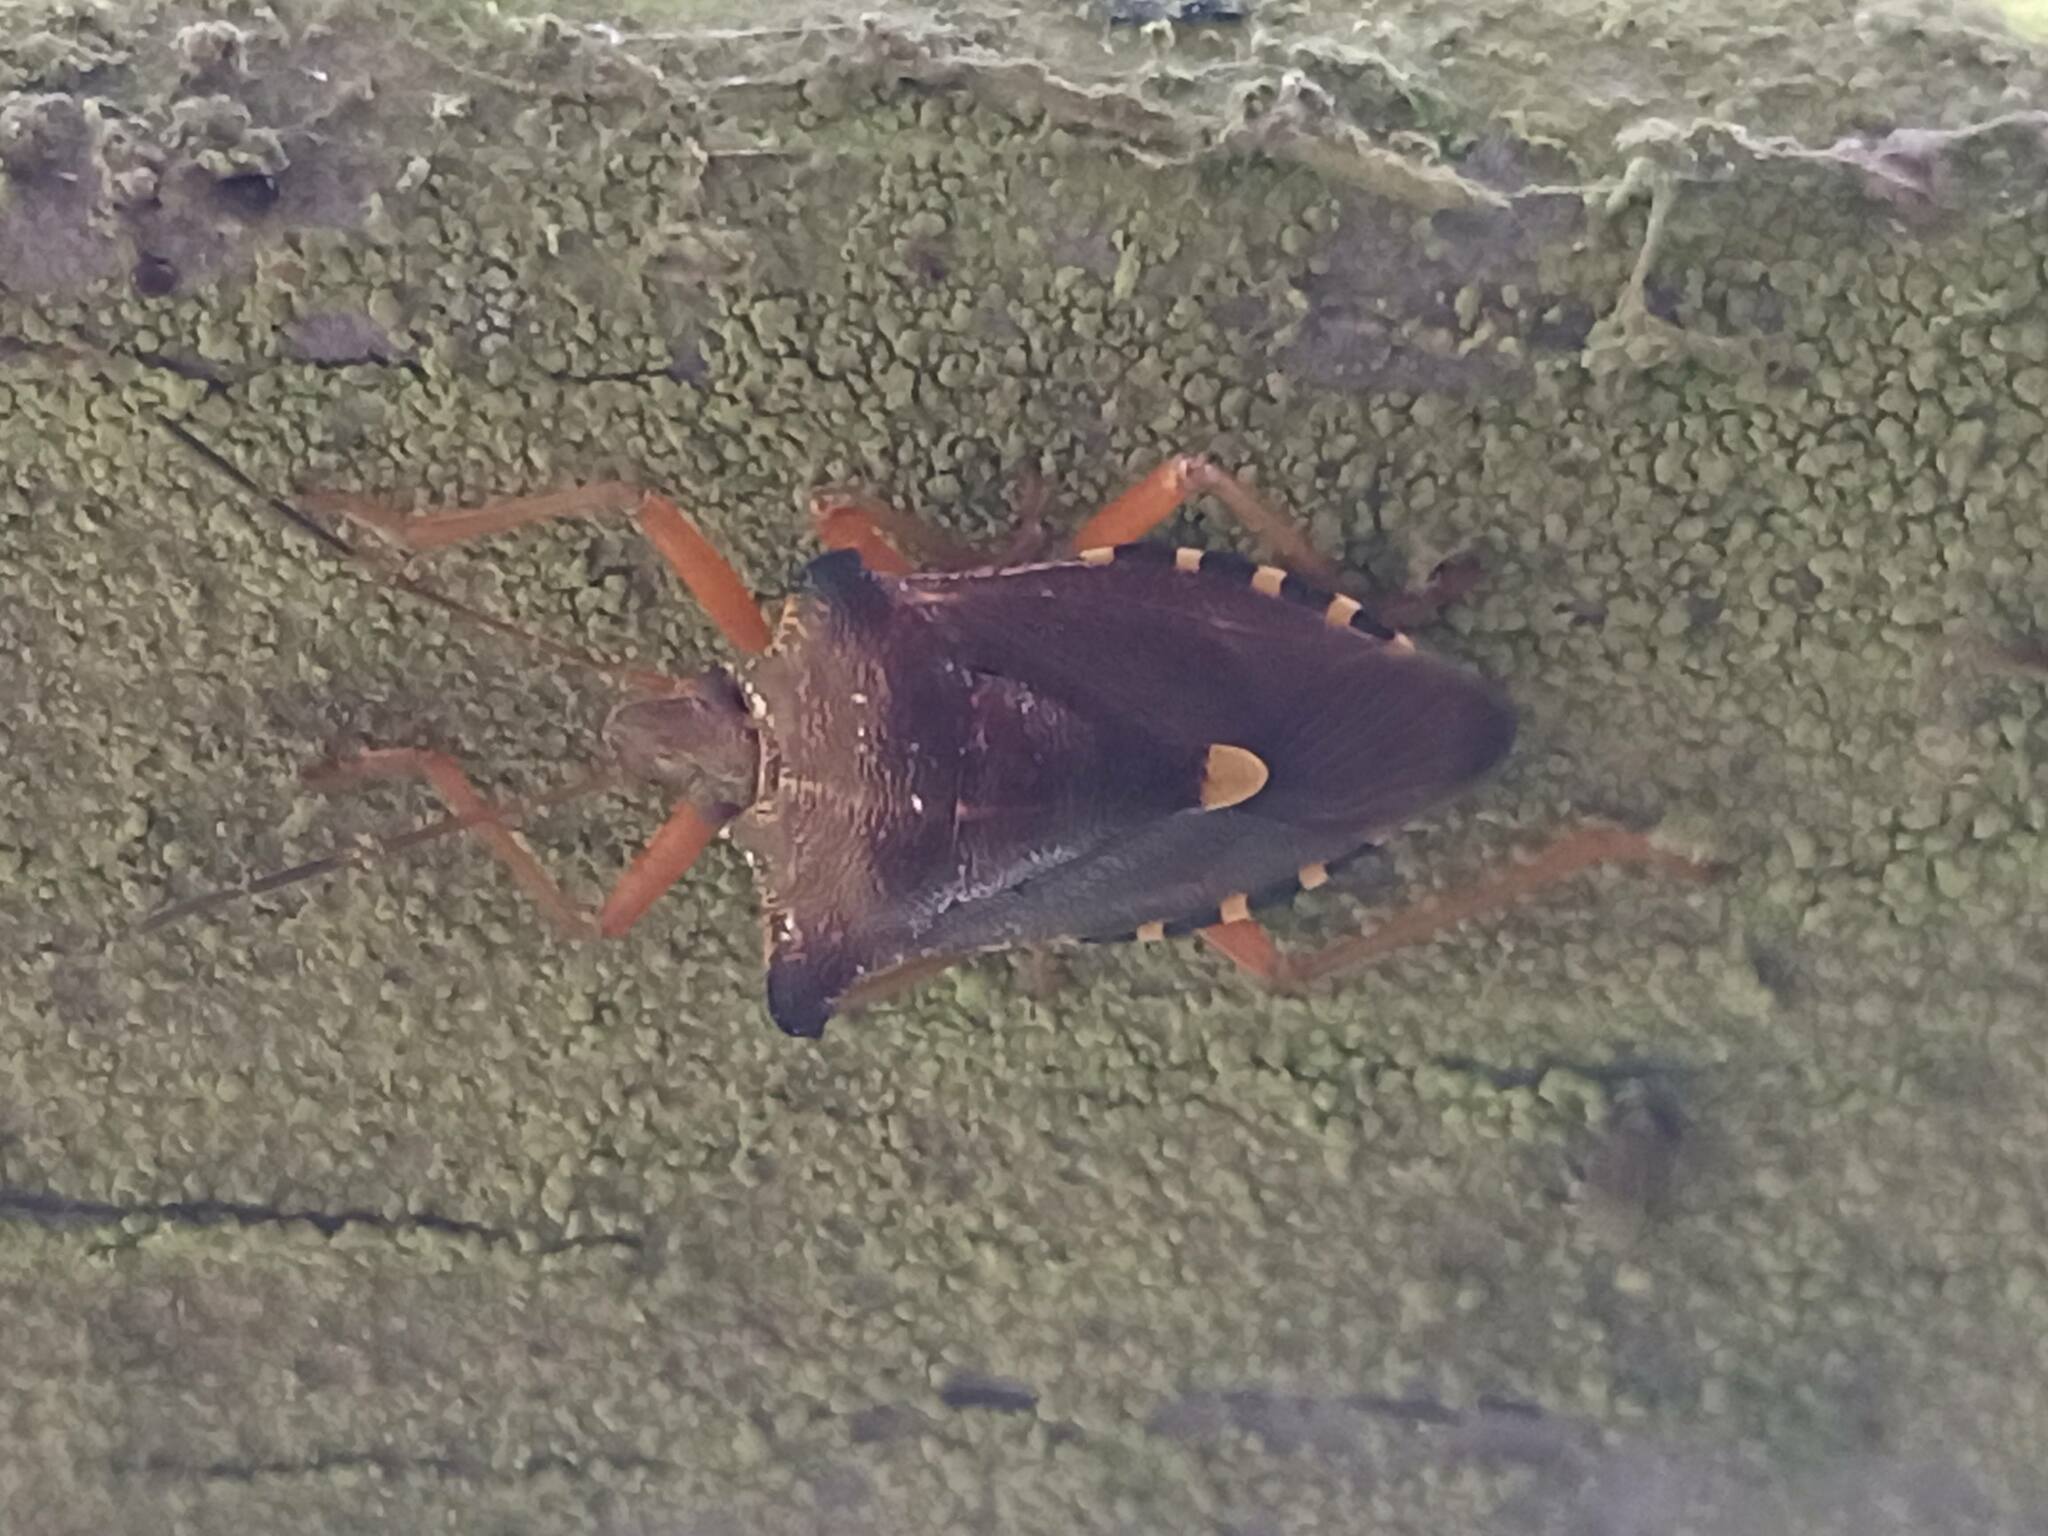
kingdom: Animalia
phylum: Arthropoda
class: Insecta
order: Hemiptera
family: Pentatomidae
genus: Pentatoma
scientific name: Pentatoma rufipes
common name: Forest bug
